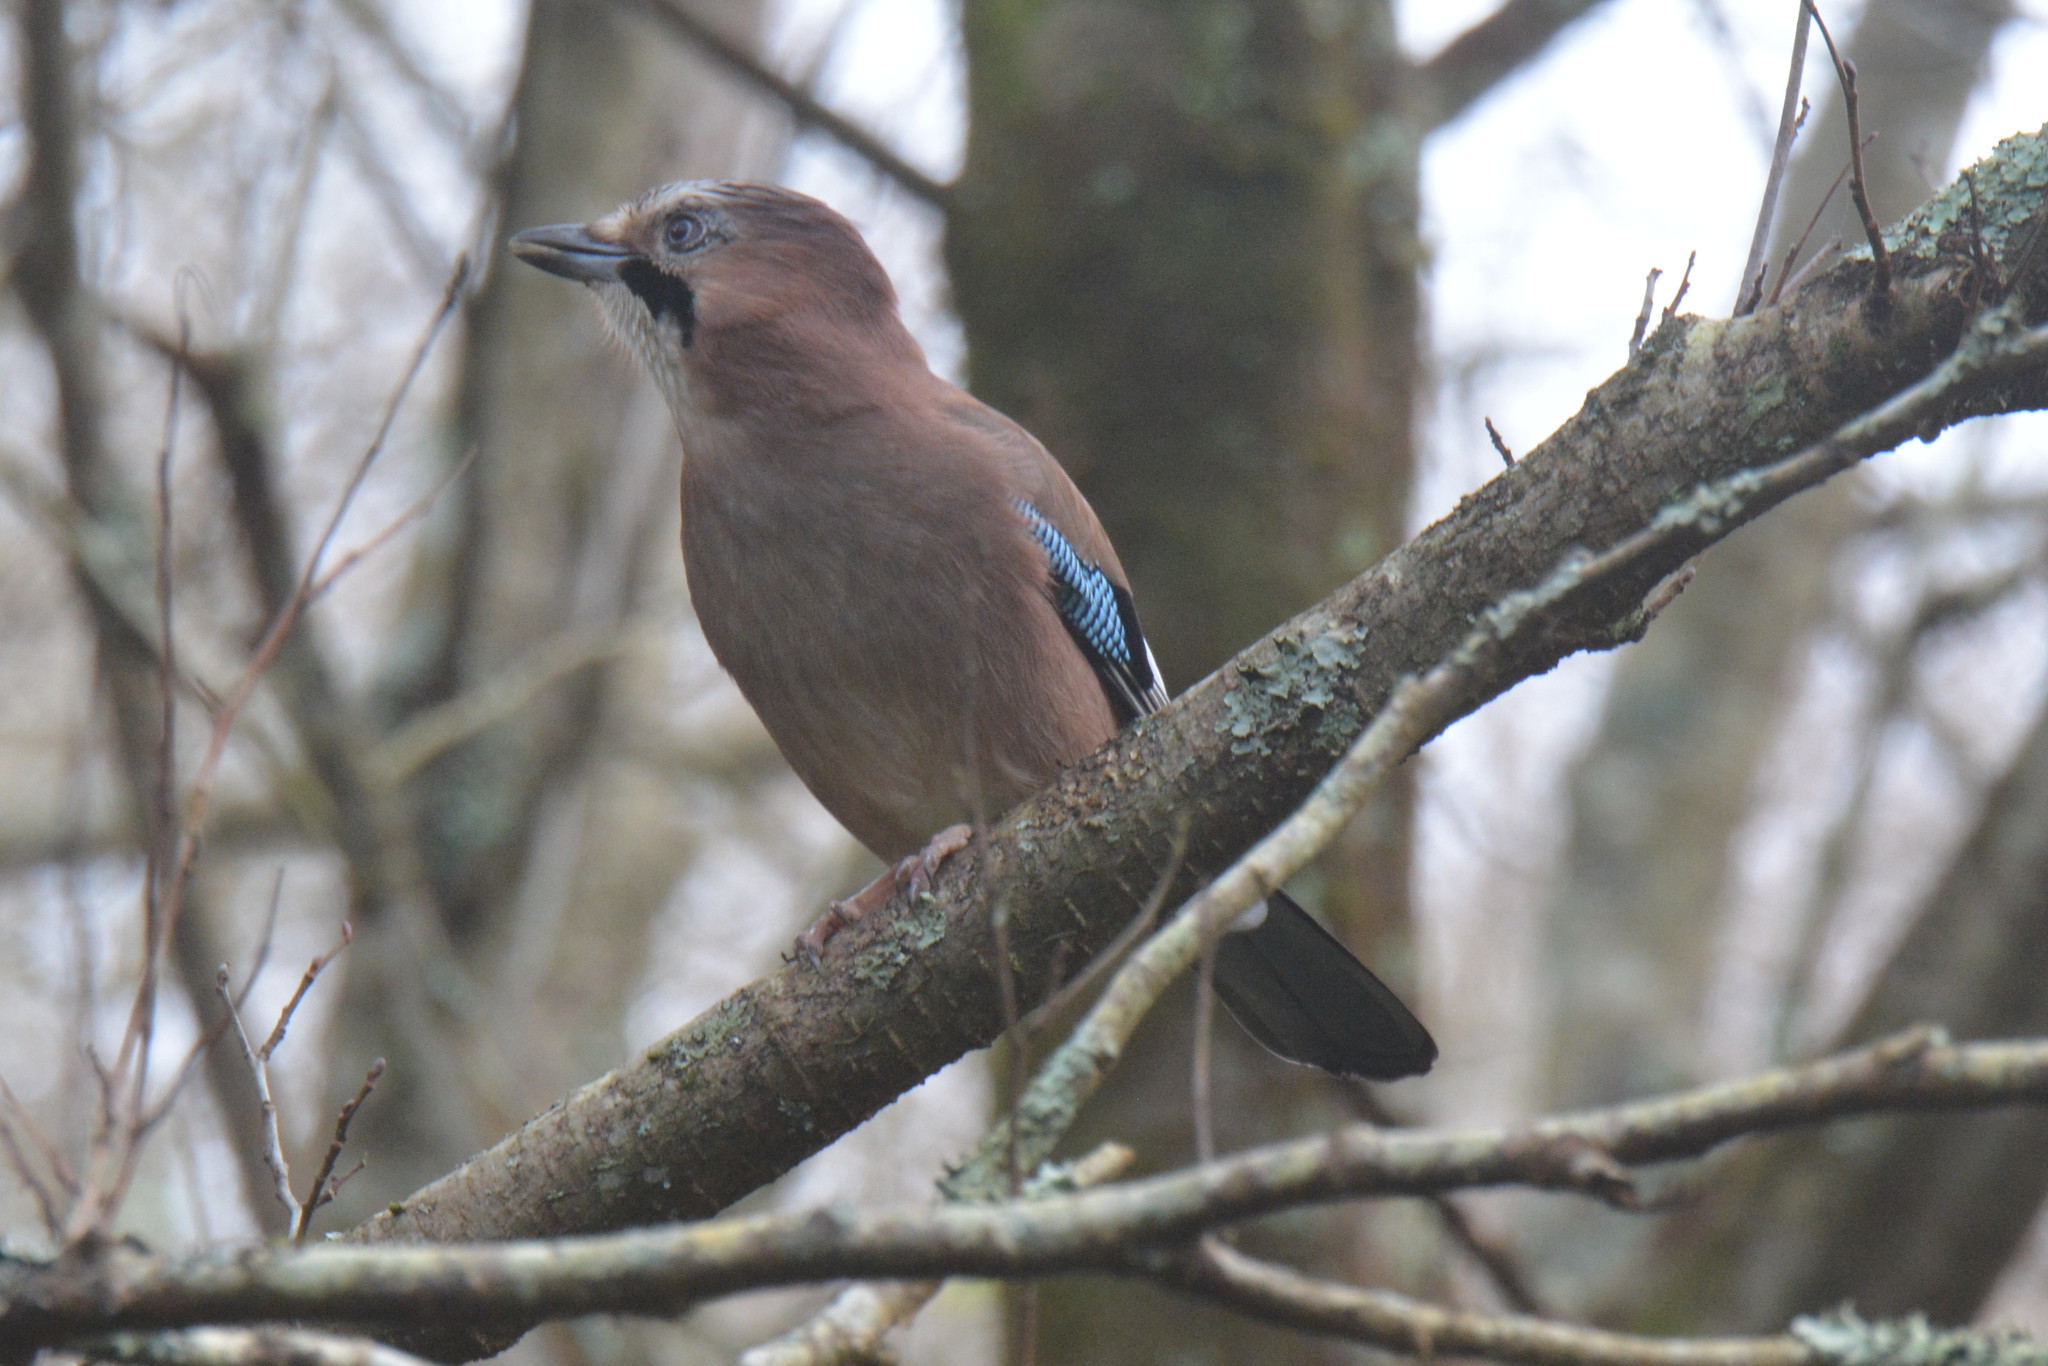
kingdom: Animalia
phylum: Chordata
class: Aves
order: Passeriformes
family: Corvidae
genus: Garrulus
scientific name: Garrulus glandarius
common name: Eurasian jay
